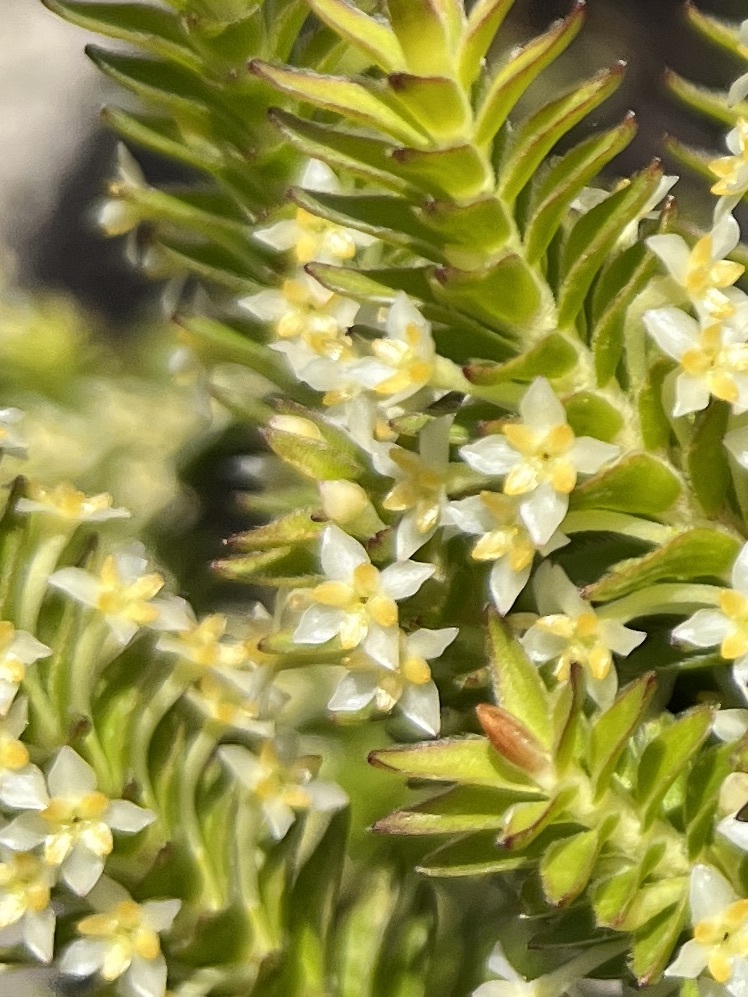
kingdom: Plantae
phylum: Tracheophyta
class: Magnoliopsida
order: Malvales
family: Thymelaeaceae
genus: Struthiola
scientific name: Struthiola striata
